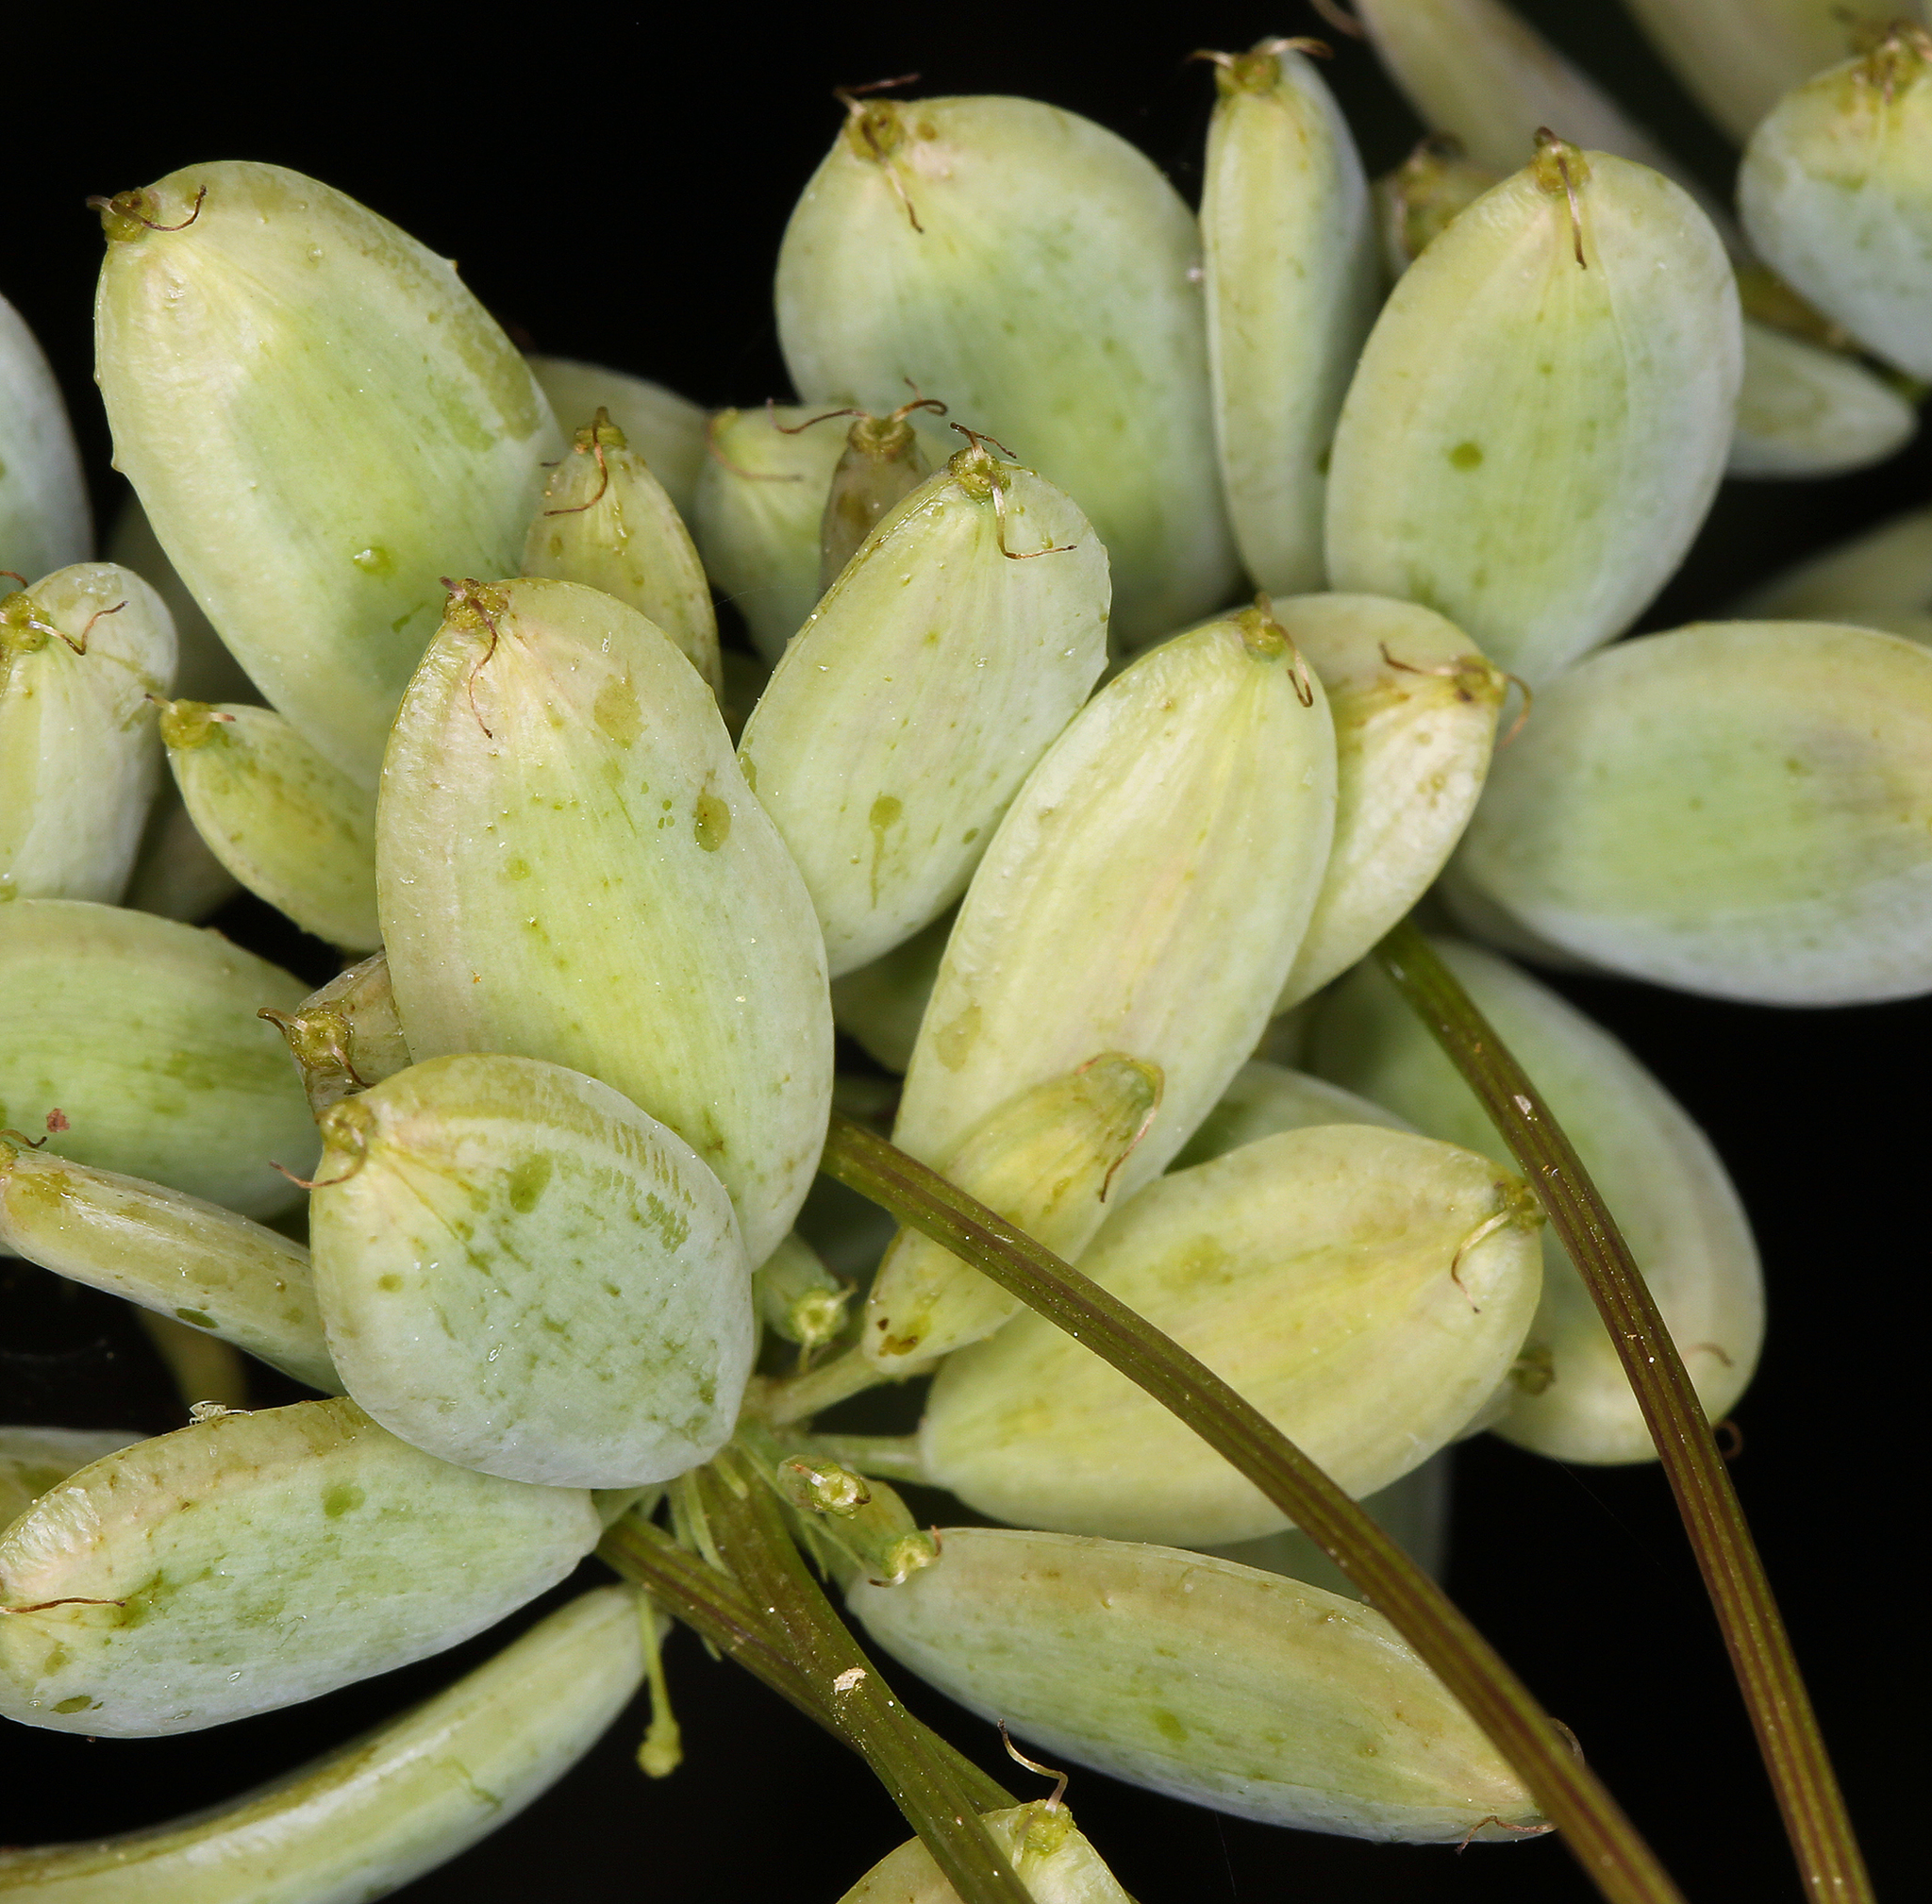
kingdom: Plantae
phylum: Tracheophyta
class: Magnoliopsida
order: Apiales
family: Apiaceae
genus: Lomatium
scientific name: Lomatium dissectum
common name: Lomatium
